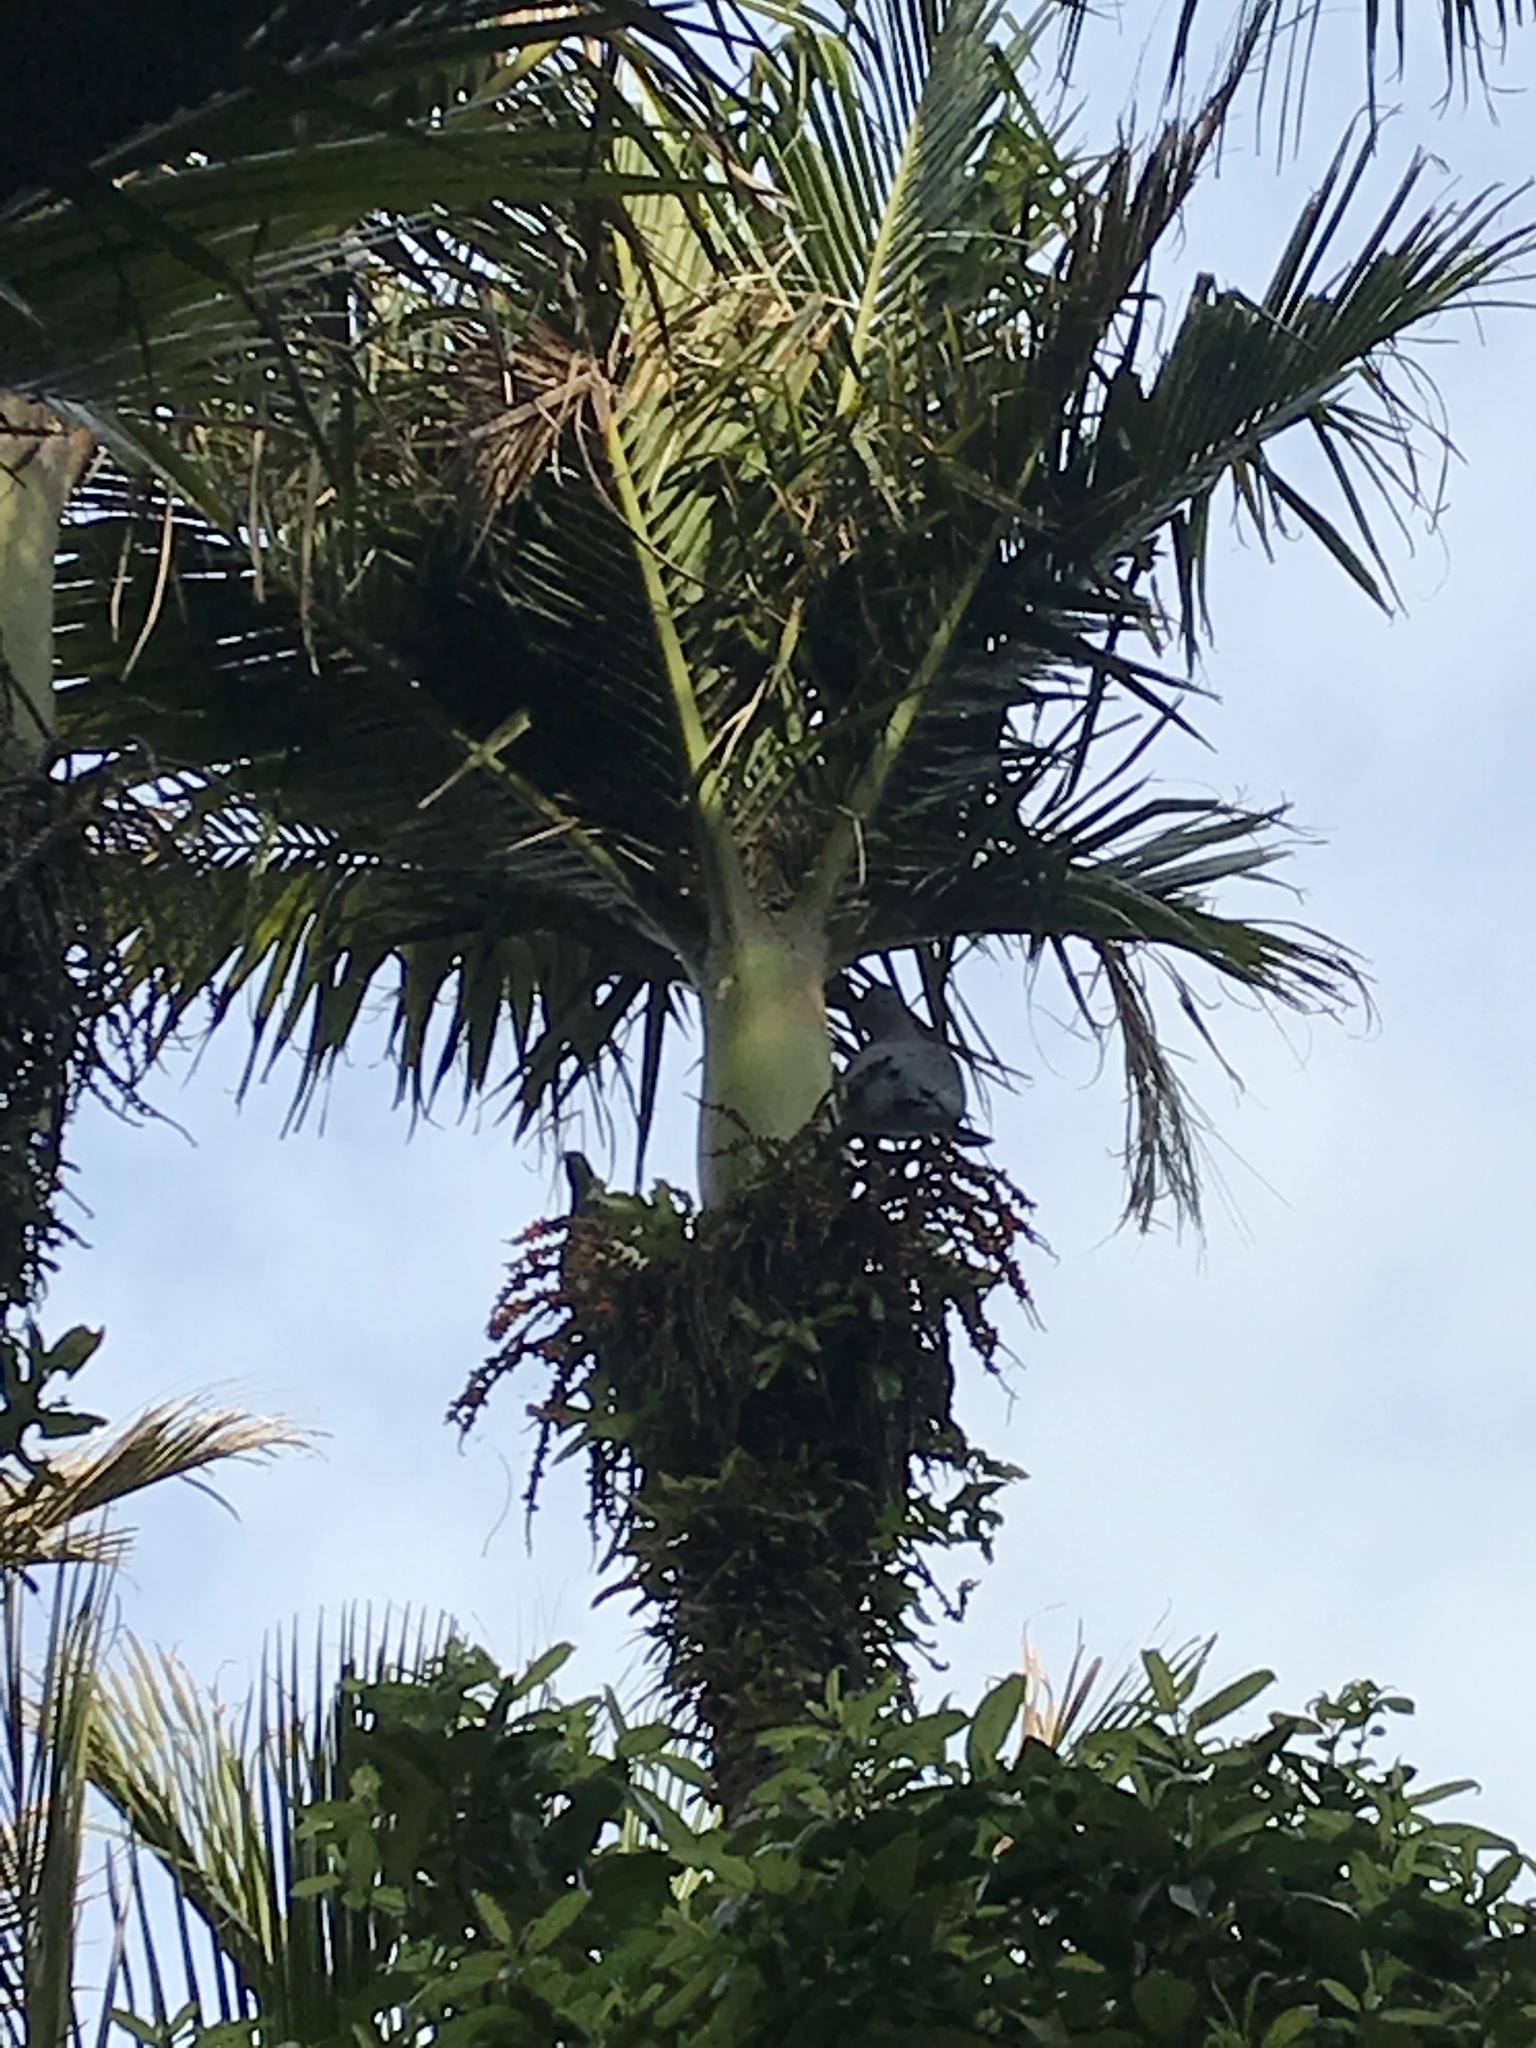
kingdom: Animalia
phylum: Chordata
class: Aves
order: Columbiformes
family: Columbidae
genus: Hemiphaga
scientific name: Hemiphaga novaeseelandiae
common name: New zealand pigeon
